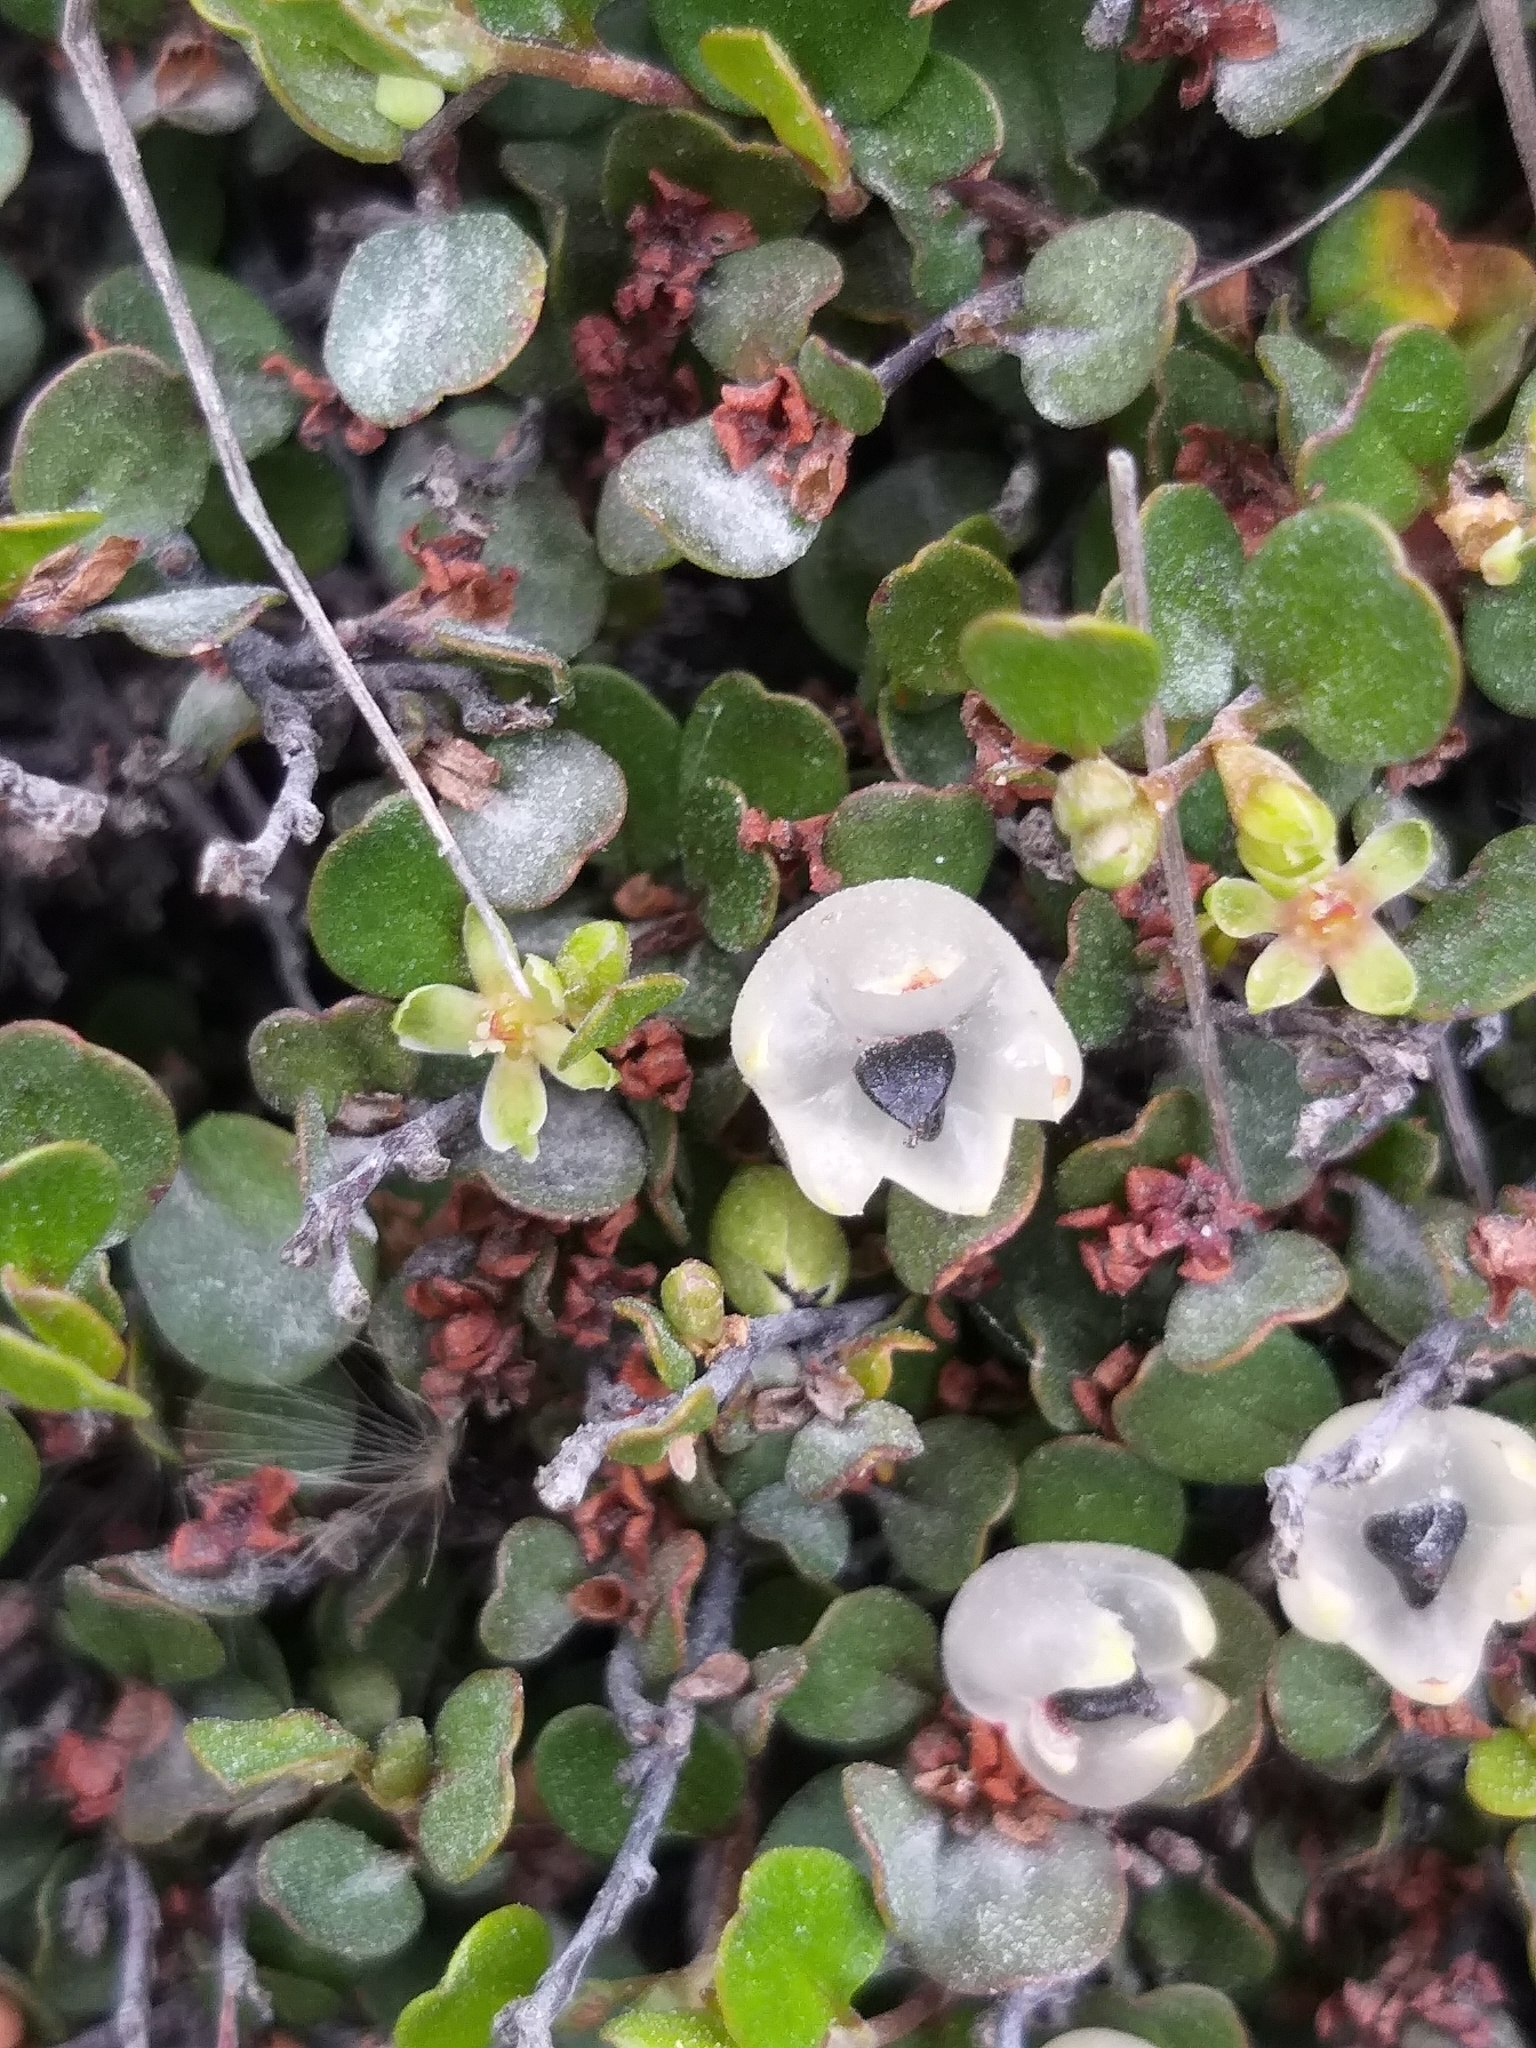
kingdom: Plantae
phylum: Tracheophyta
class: Magnoliopsida
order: Caryophyllales
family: Polygonaceae
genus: Muehlenbeckia
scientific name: Muehlenbeckia axillaris
